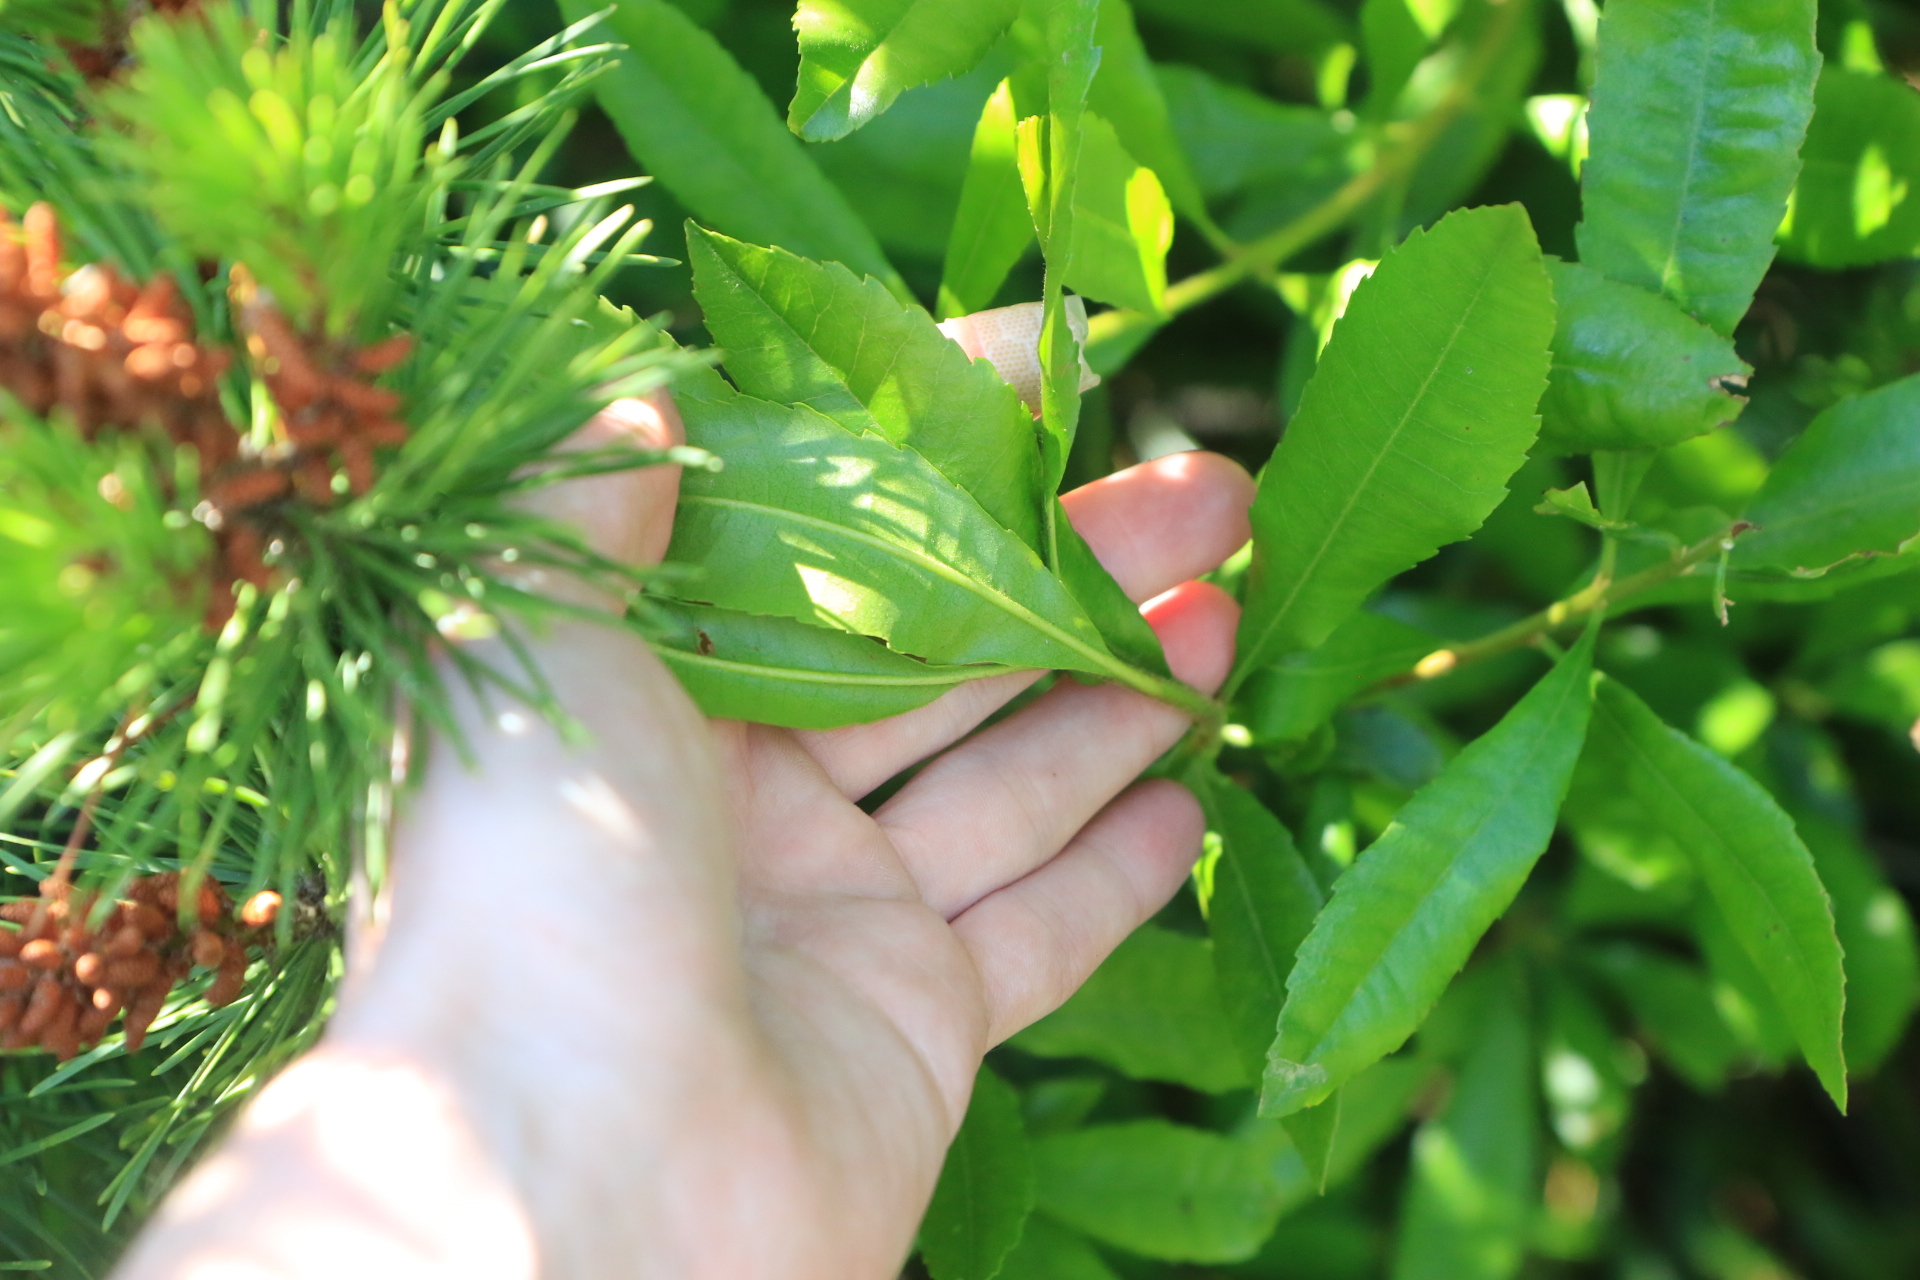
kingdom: Plantae
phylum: Tracheophyta
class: Magnoliopsida
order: Fagales
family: Myricaceae
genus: Morella
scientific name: Morella californica
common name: California wax-myrtle
